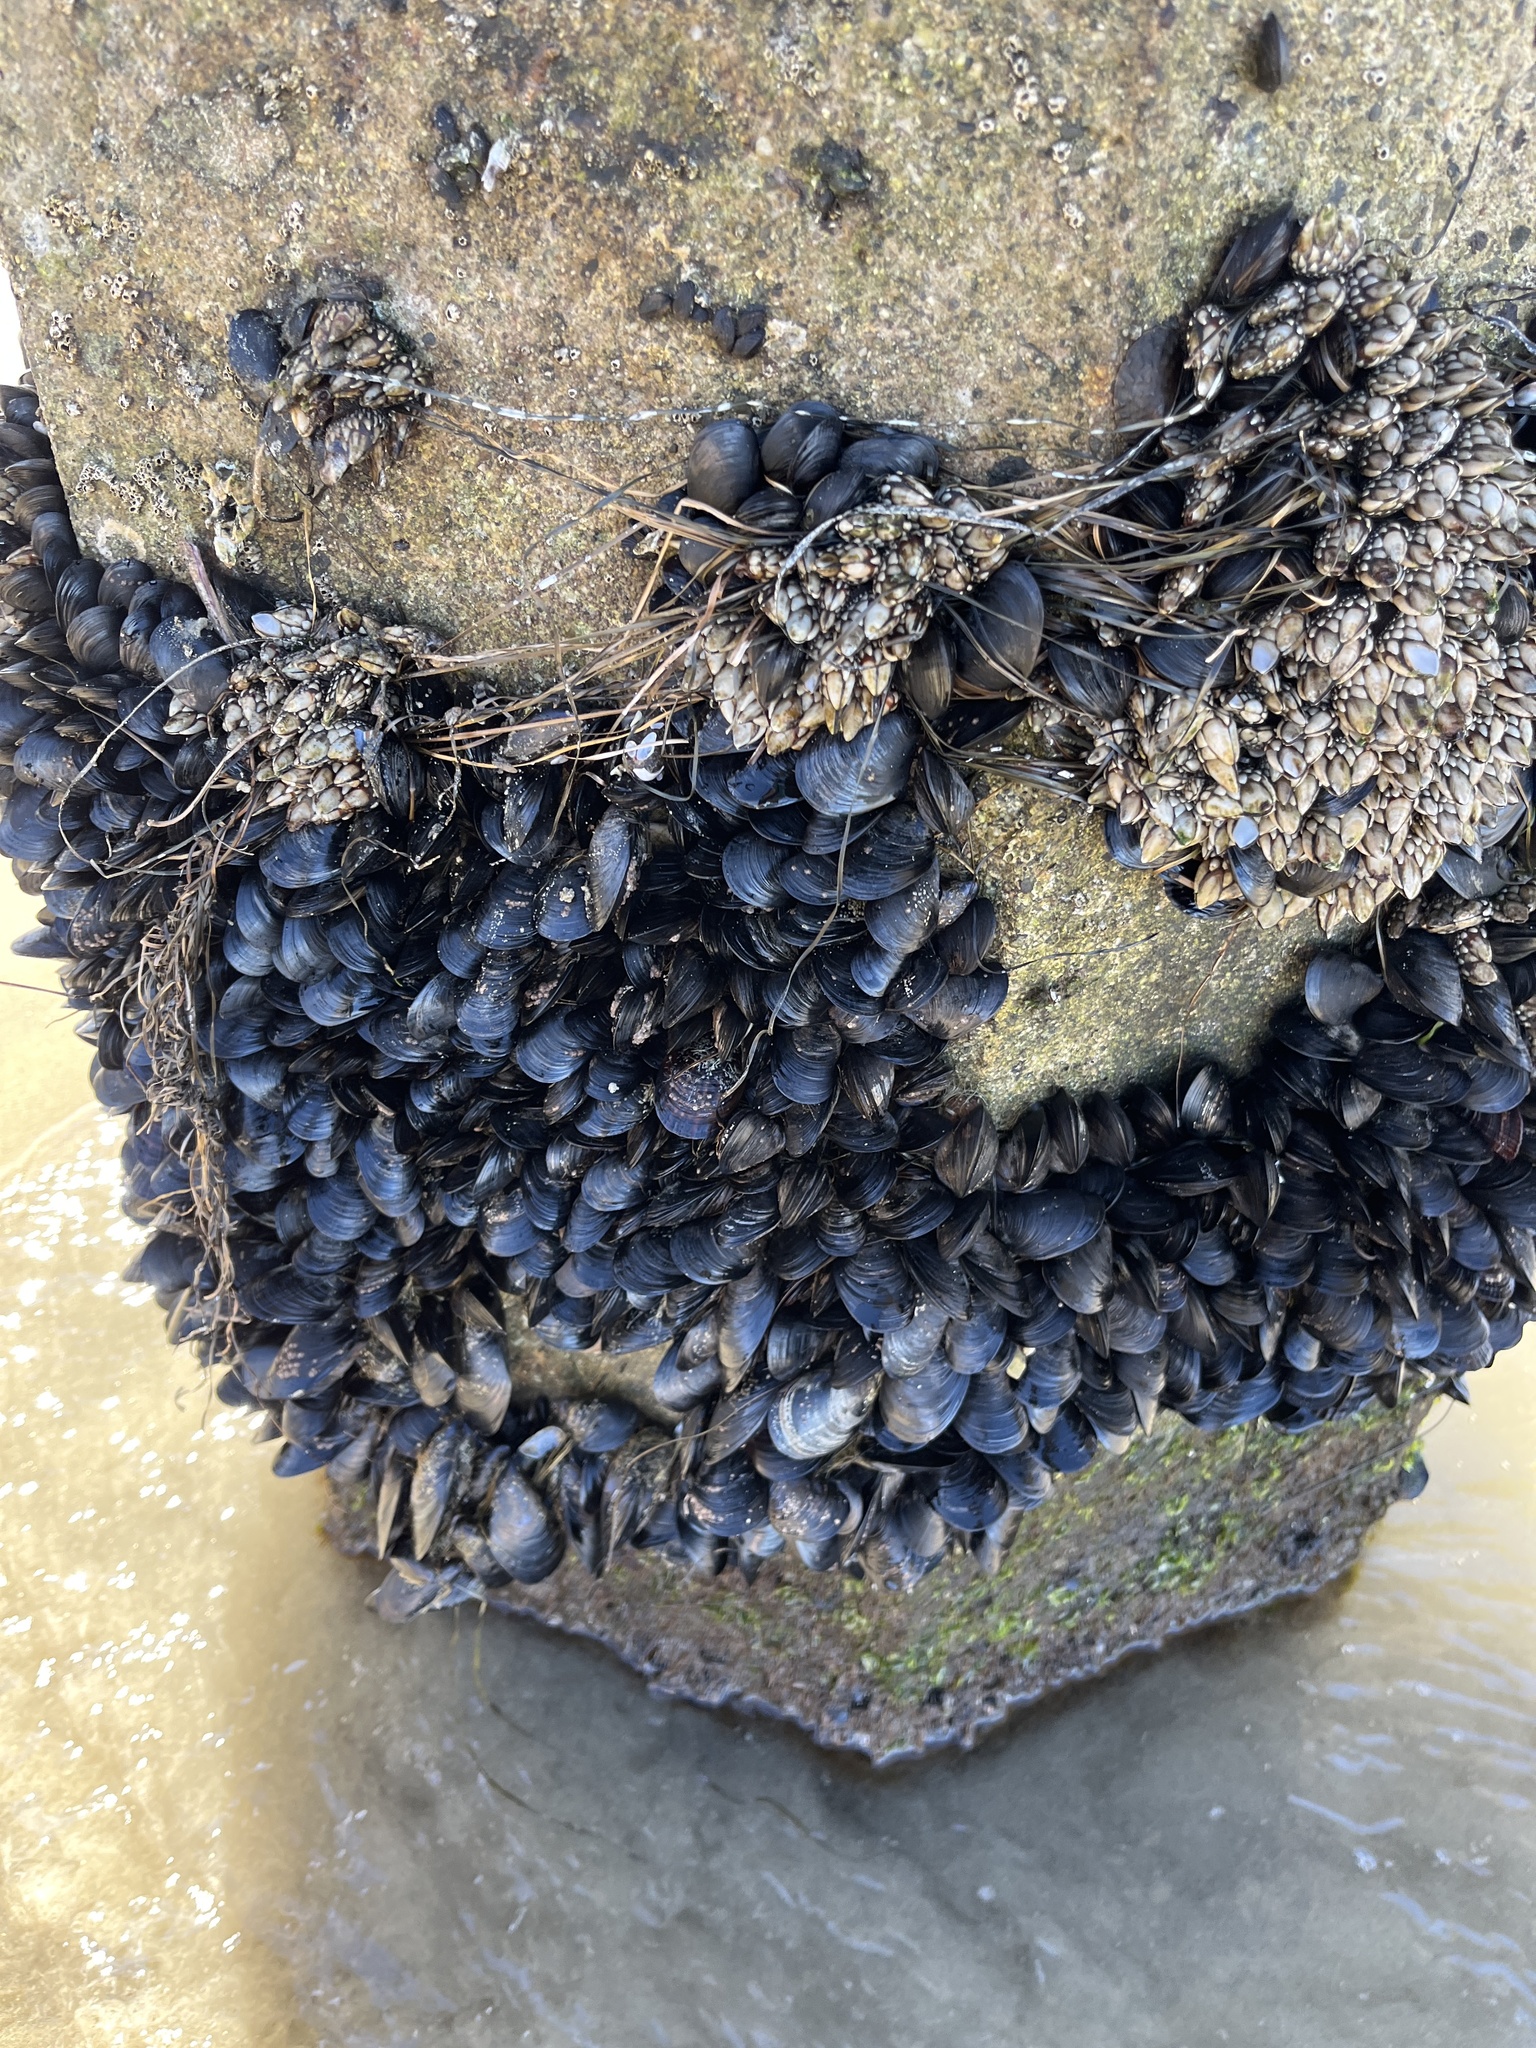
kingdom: Animalia
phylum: Mollusca
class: Bivalvia
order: Mytilida
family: Mytilidae
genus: Mytilus
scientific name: Mytilus californianus
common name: California mussel
